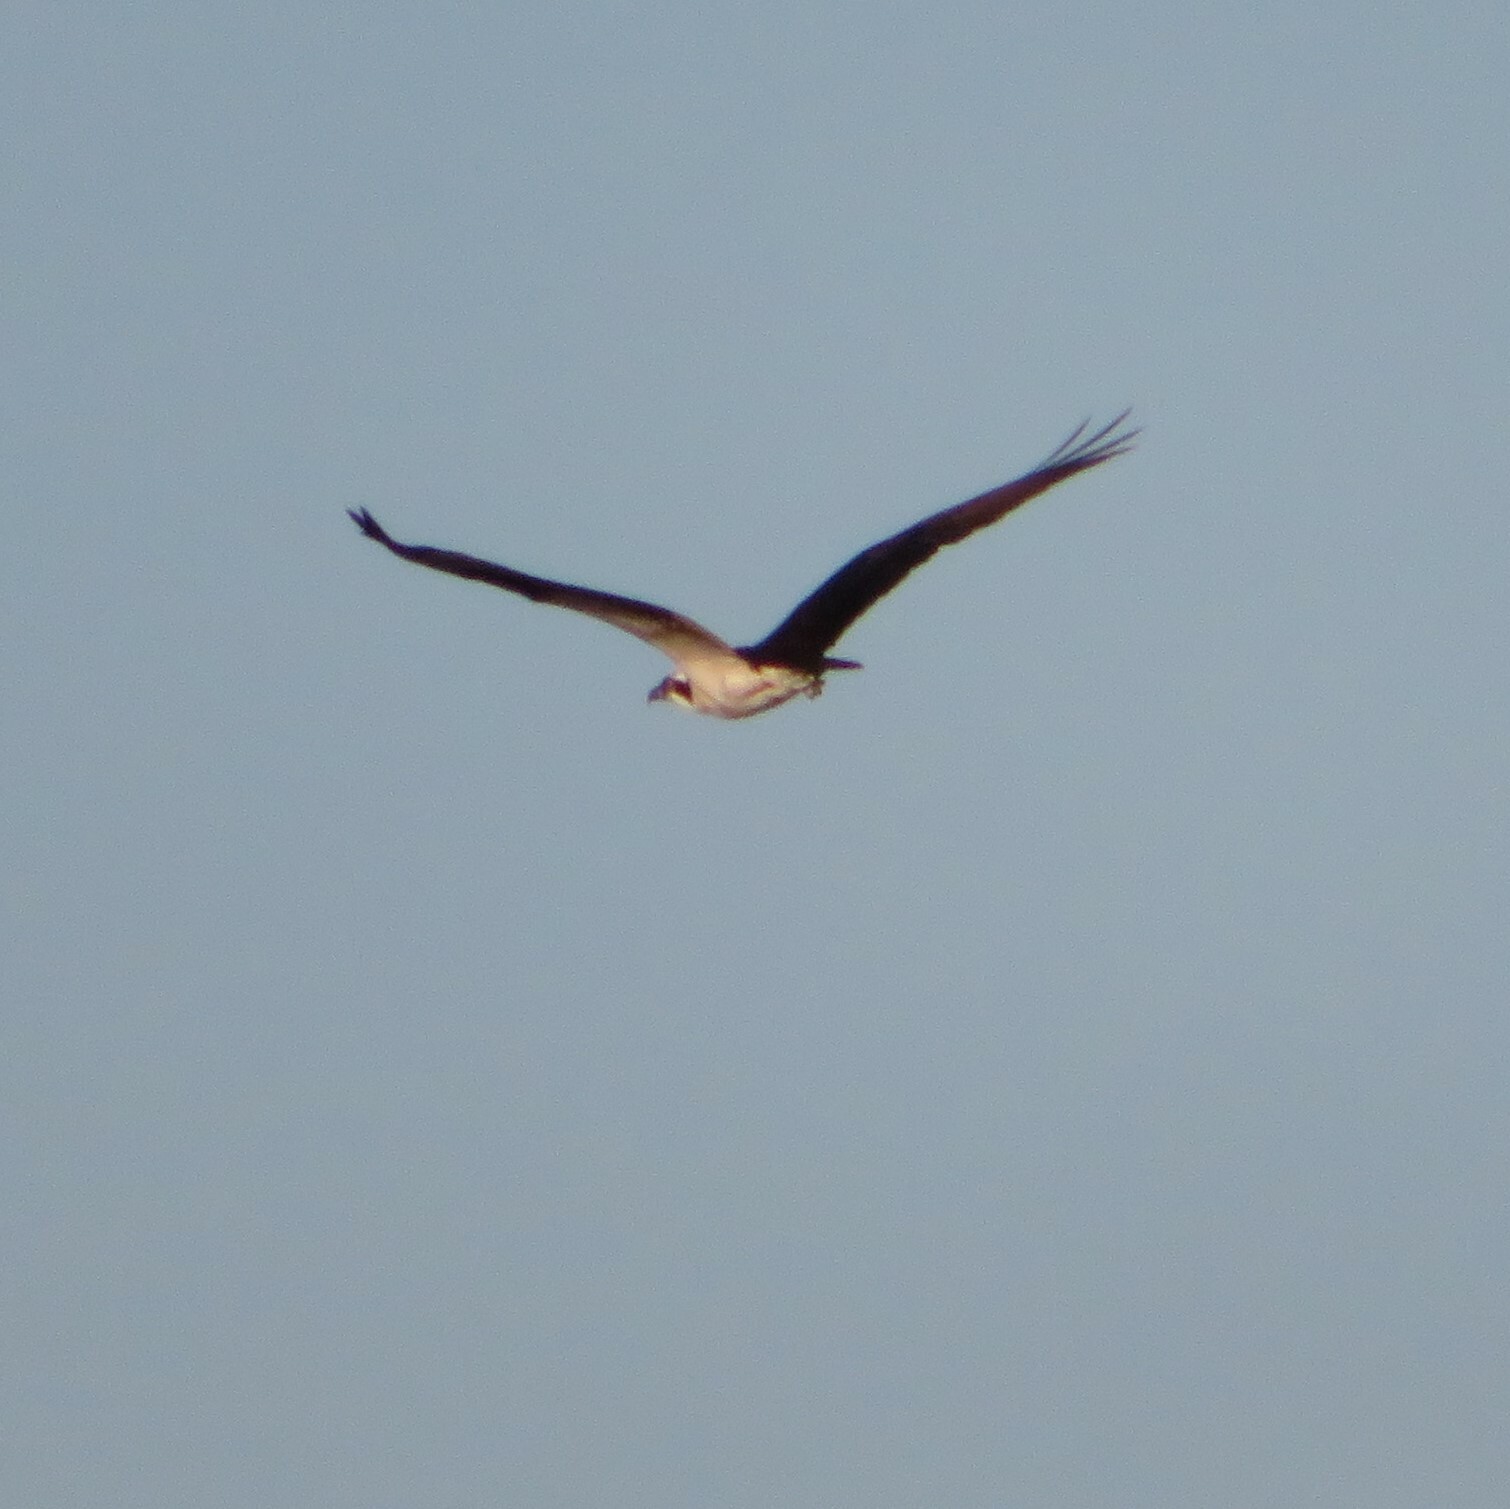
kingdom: Animalia
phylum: Chordata
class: Aves
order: Accipitriformes
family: Pandionidae
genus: Pandion
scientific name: Pandion haliaetus
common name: Osprey
